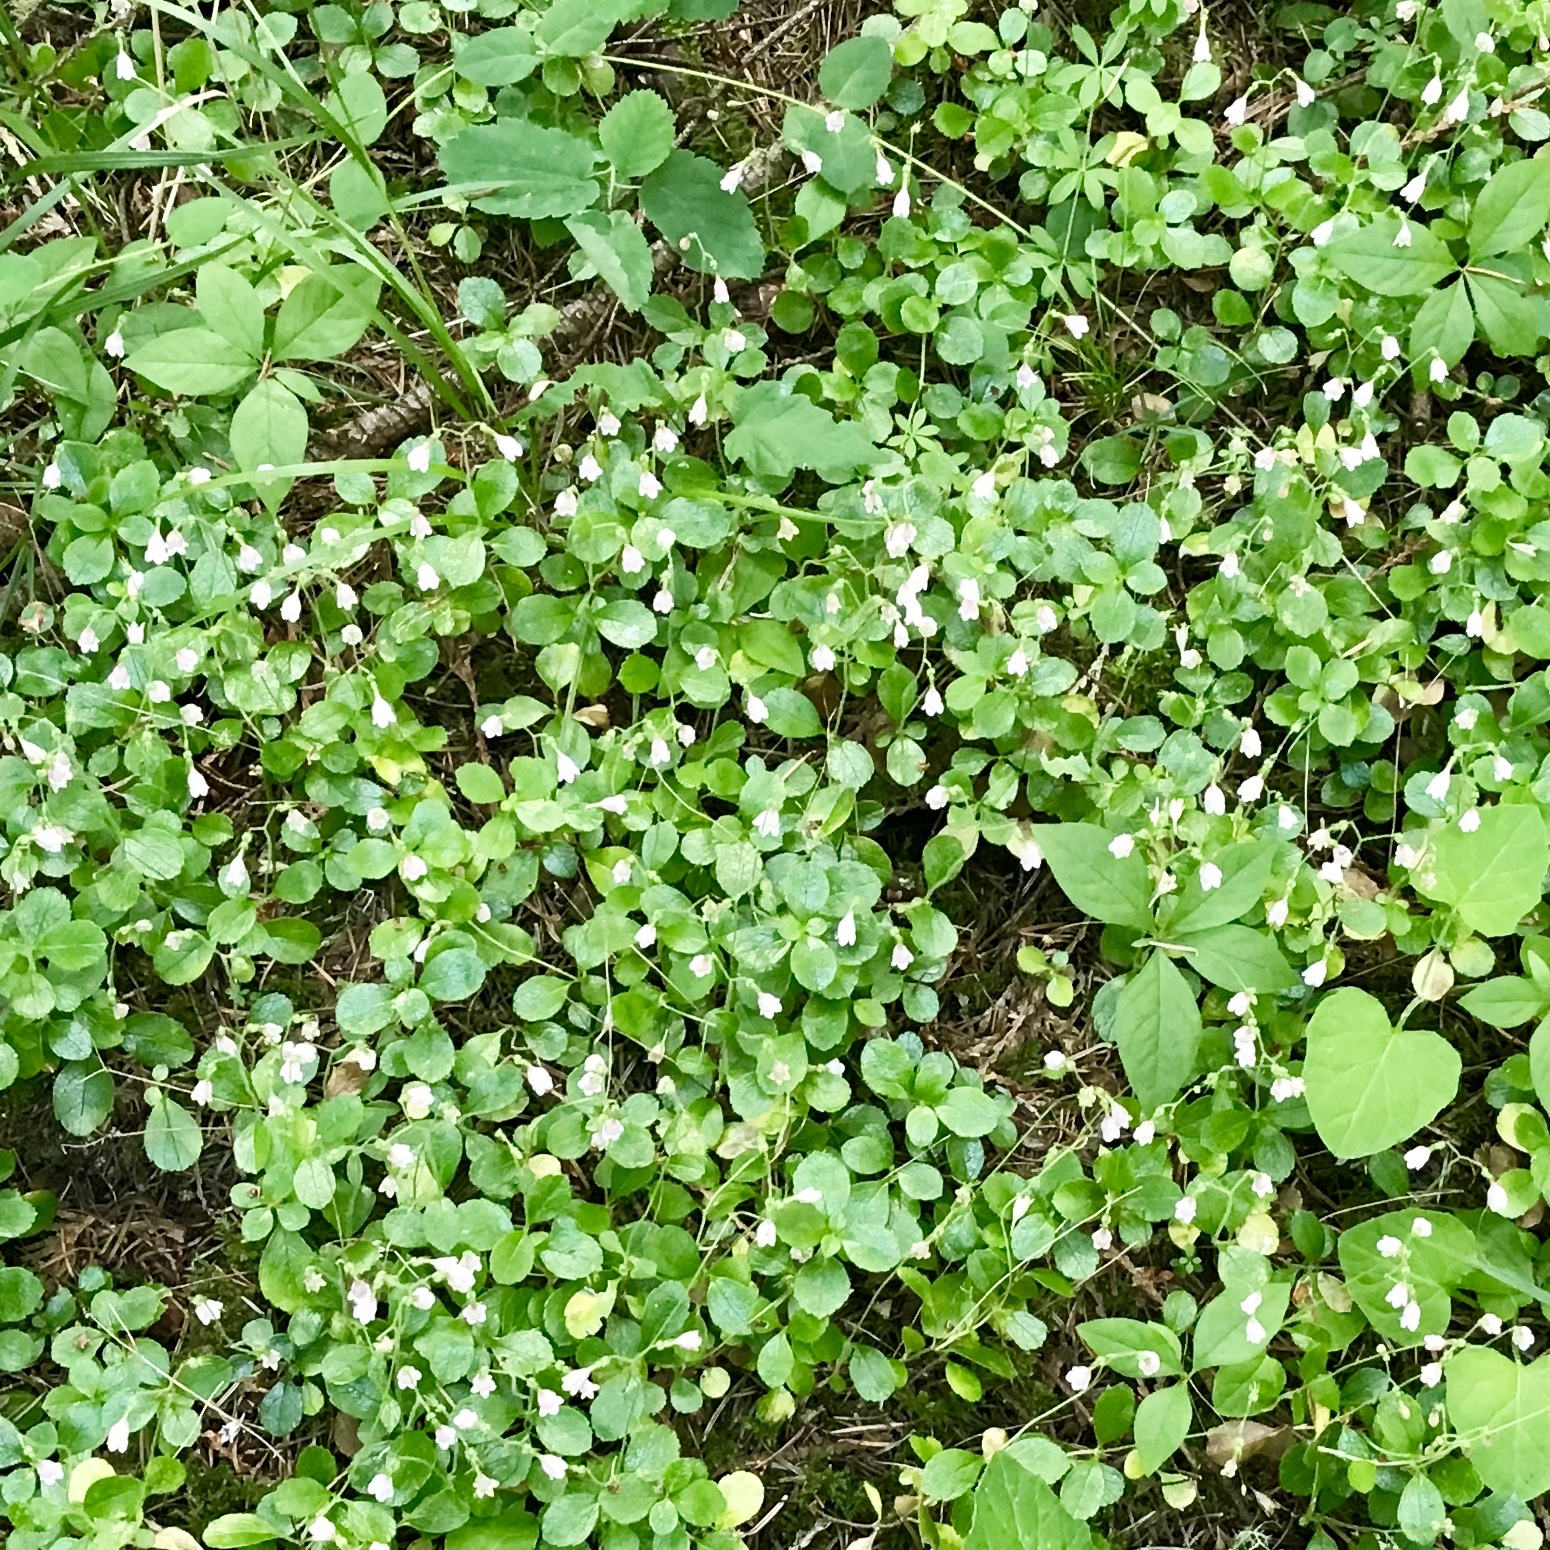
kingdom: Plantae
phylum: Tracheophyta
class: Magnoliopsida
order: Dipsacales
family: Caprifoliaceae
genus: Linnaea
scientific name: Linnaea borealis
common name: Twinflower
